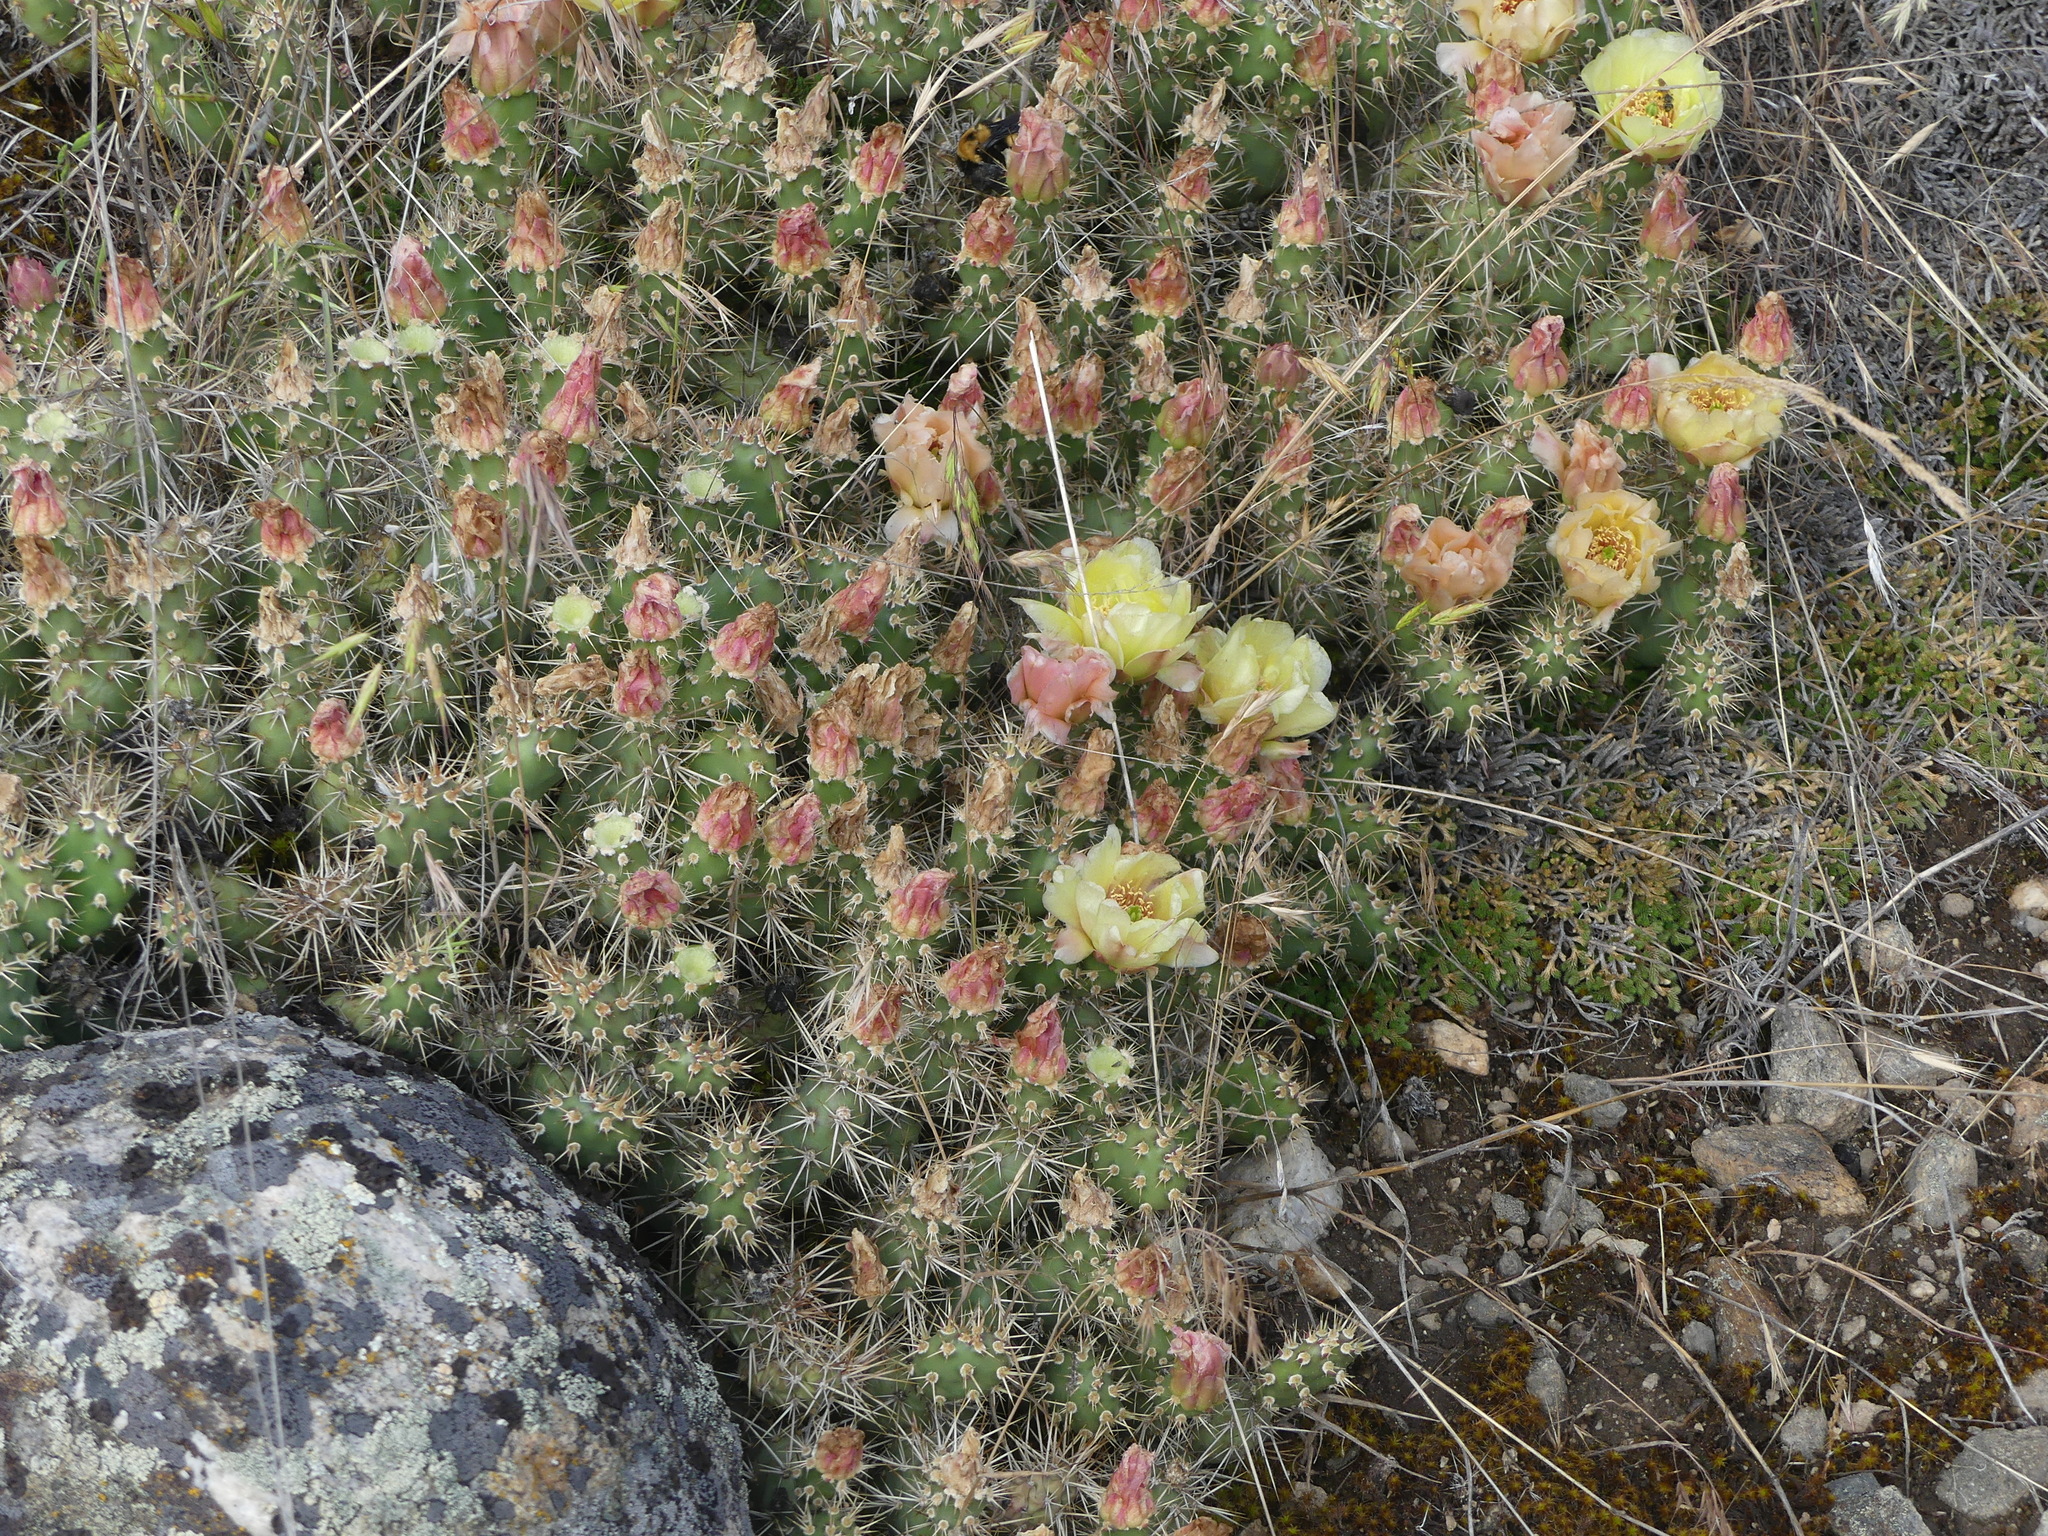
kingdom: Plantae
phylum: Tracheophyta
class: Magnoliopsida
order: Caryophyllales
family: Cactaceae
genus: Opuntia
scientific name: Opuntia fragilis
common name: Brittle cactus
